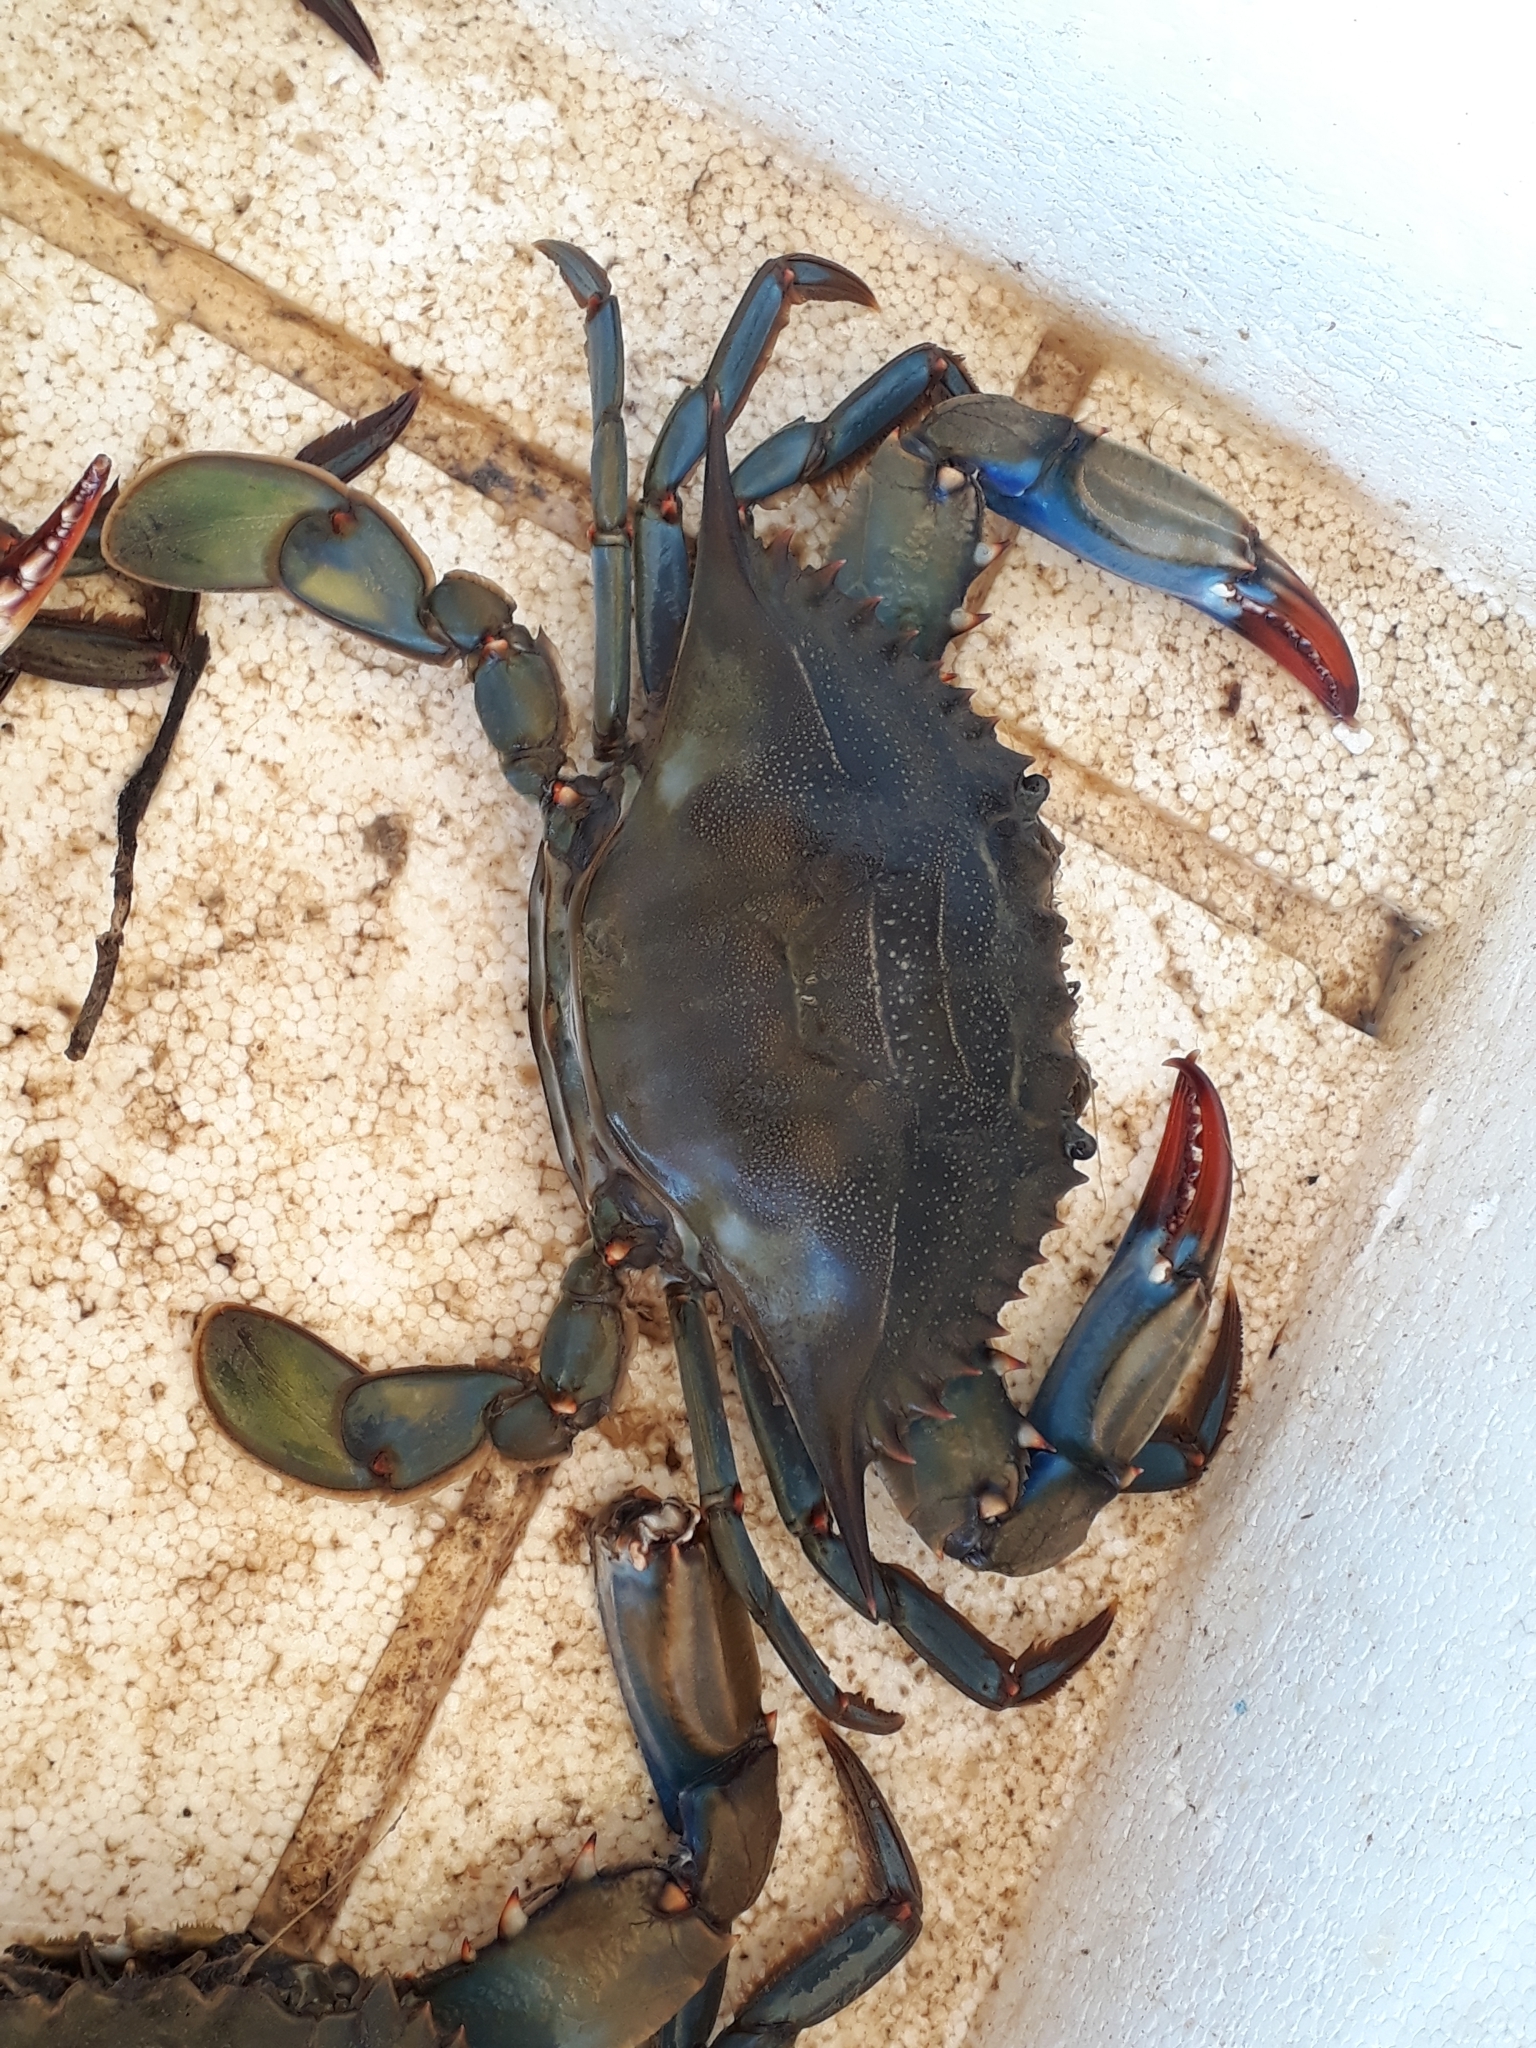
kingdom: Animalia
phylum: Arthropoda
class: Malacostraca
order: Decapoda
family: Portunidae
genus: Callinectes
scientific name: Callinectes sapidus
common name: Blue crab
